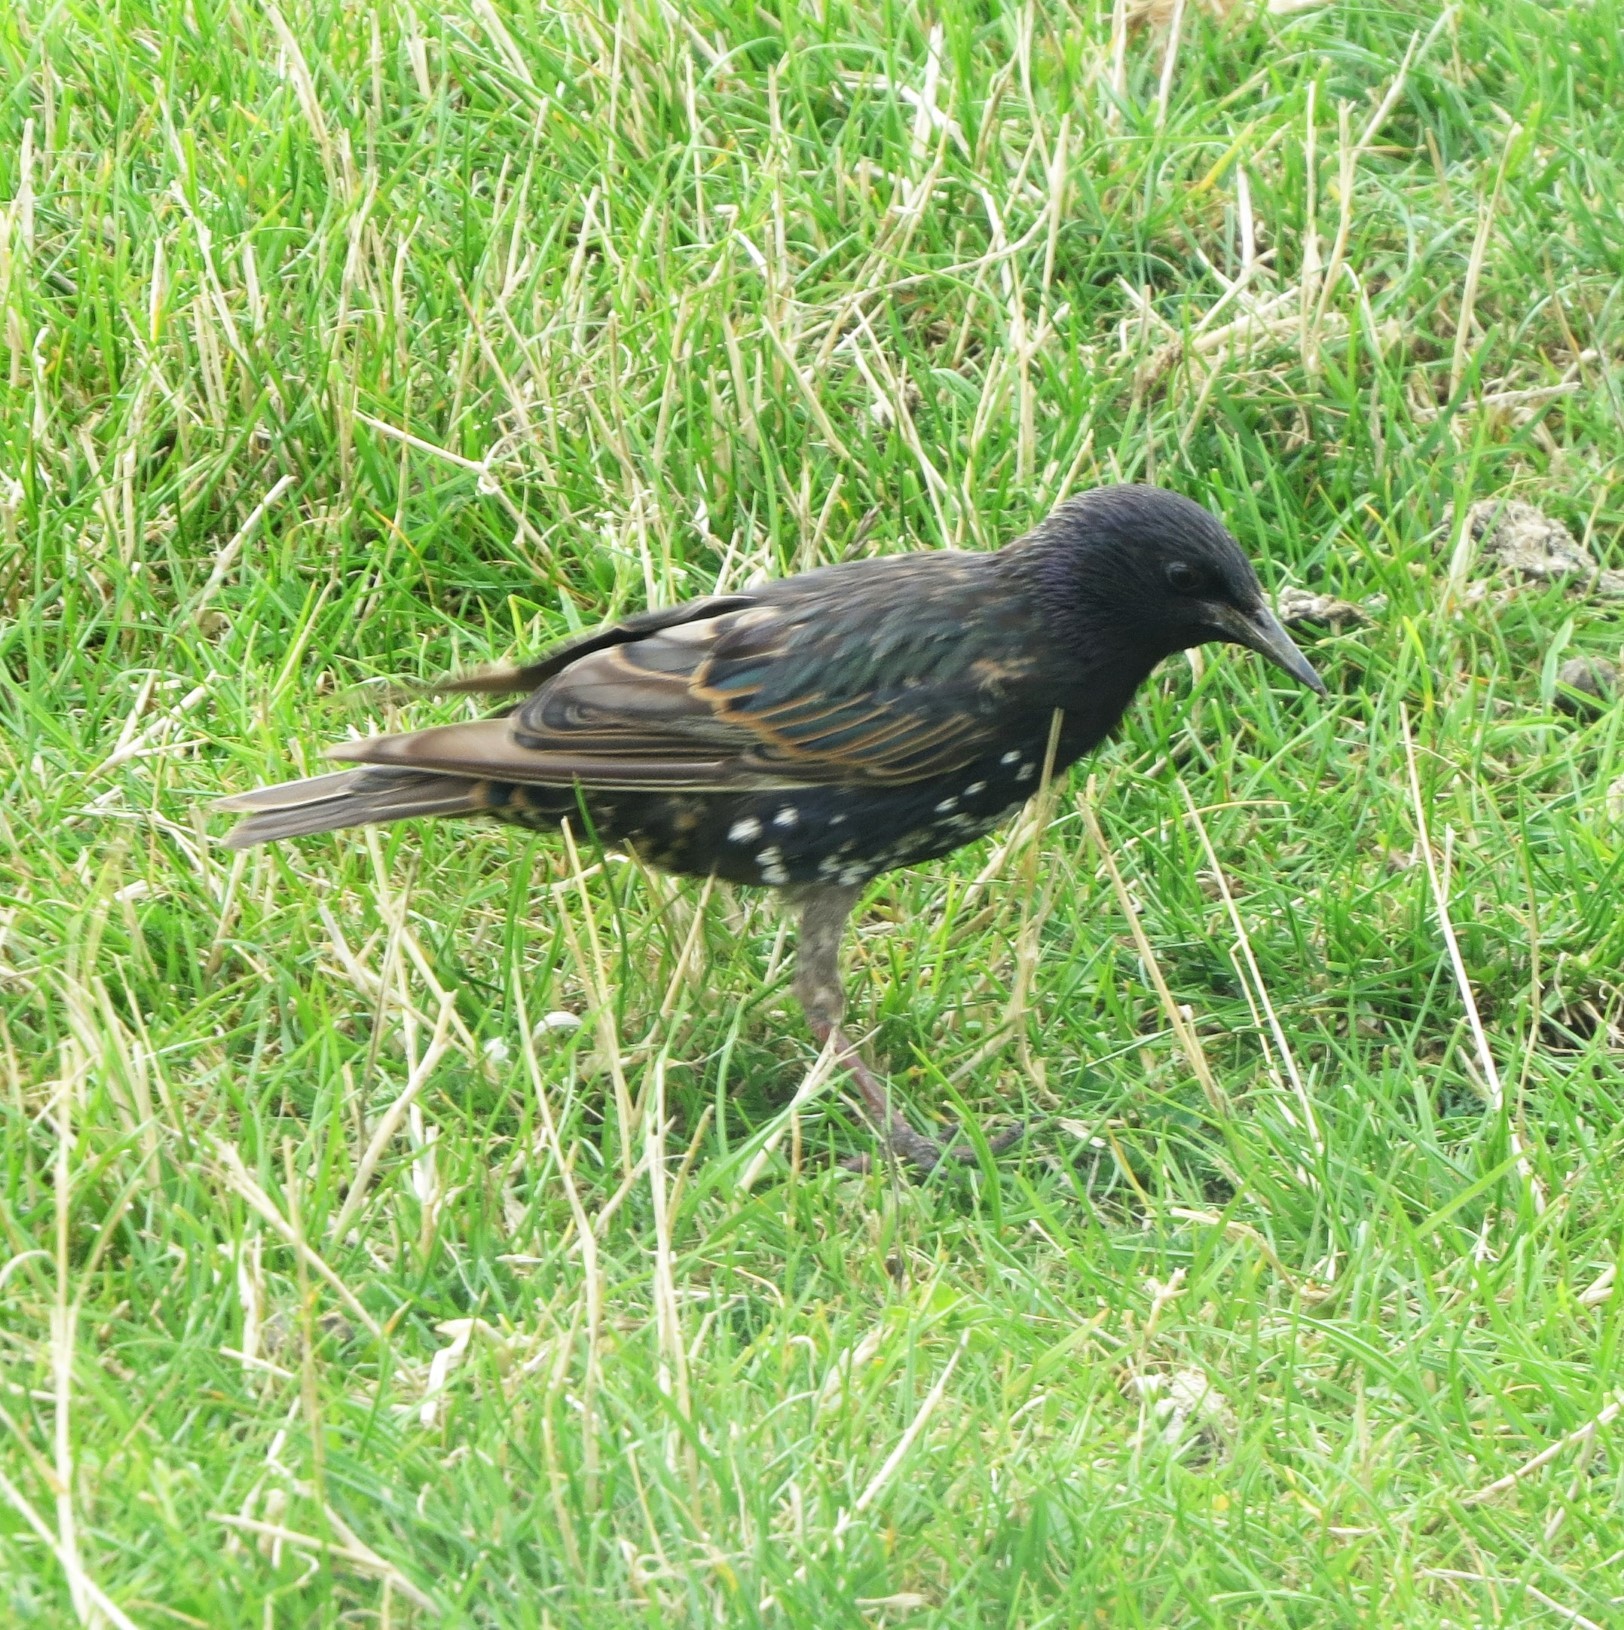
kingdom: Animalia
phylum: Chordata
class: Aves
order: Passeriformes
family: Sturnidae
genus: Sturnus
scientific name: Sturnus vulgaris
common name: Common starling
